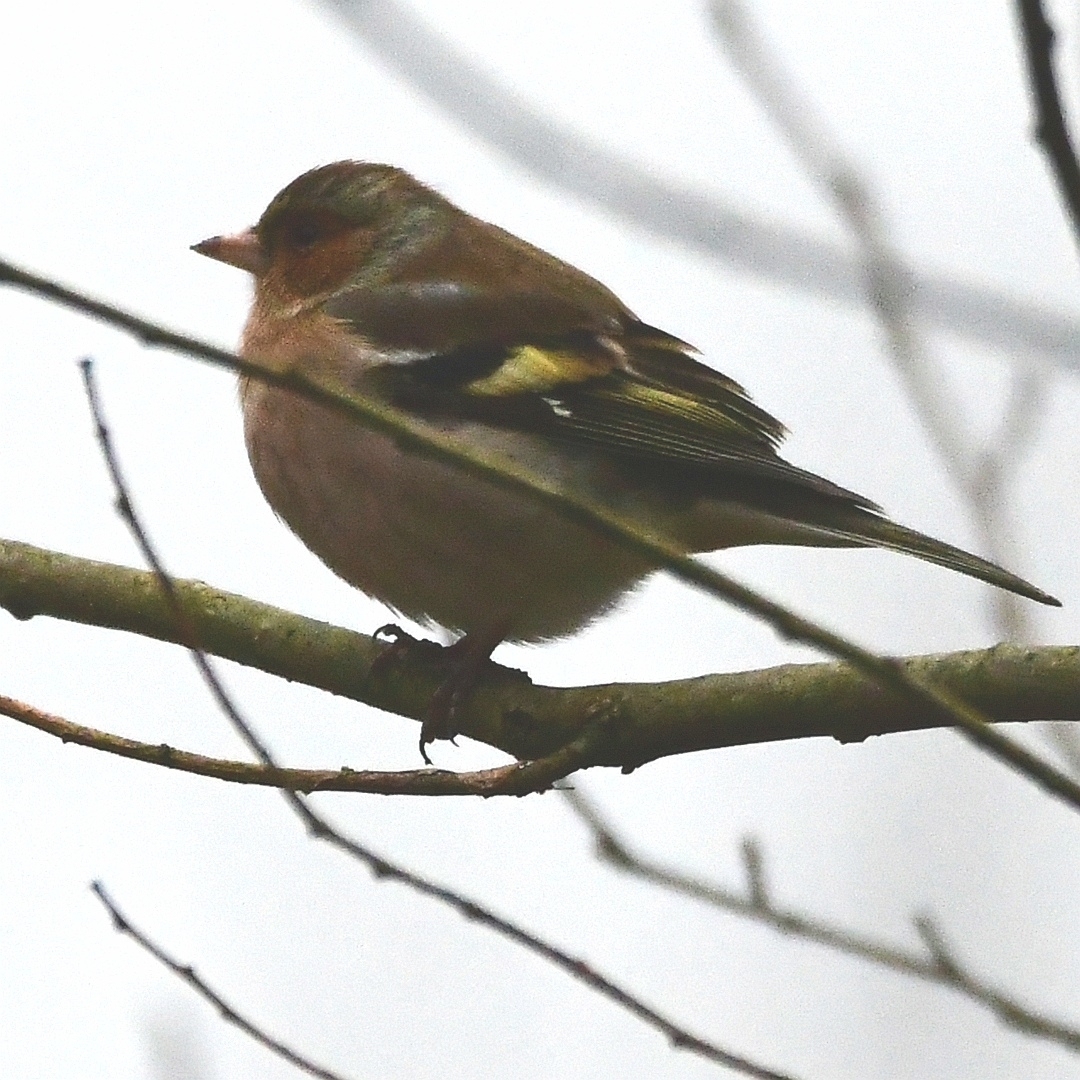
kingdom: Animalia
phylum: Chordata
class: Aves
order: Passeriformes
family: Fringillidae
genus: Fringilla
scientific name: Fringilla coelebs
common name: Common chaffinch
